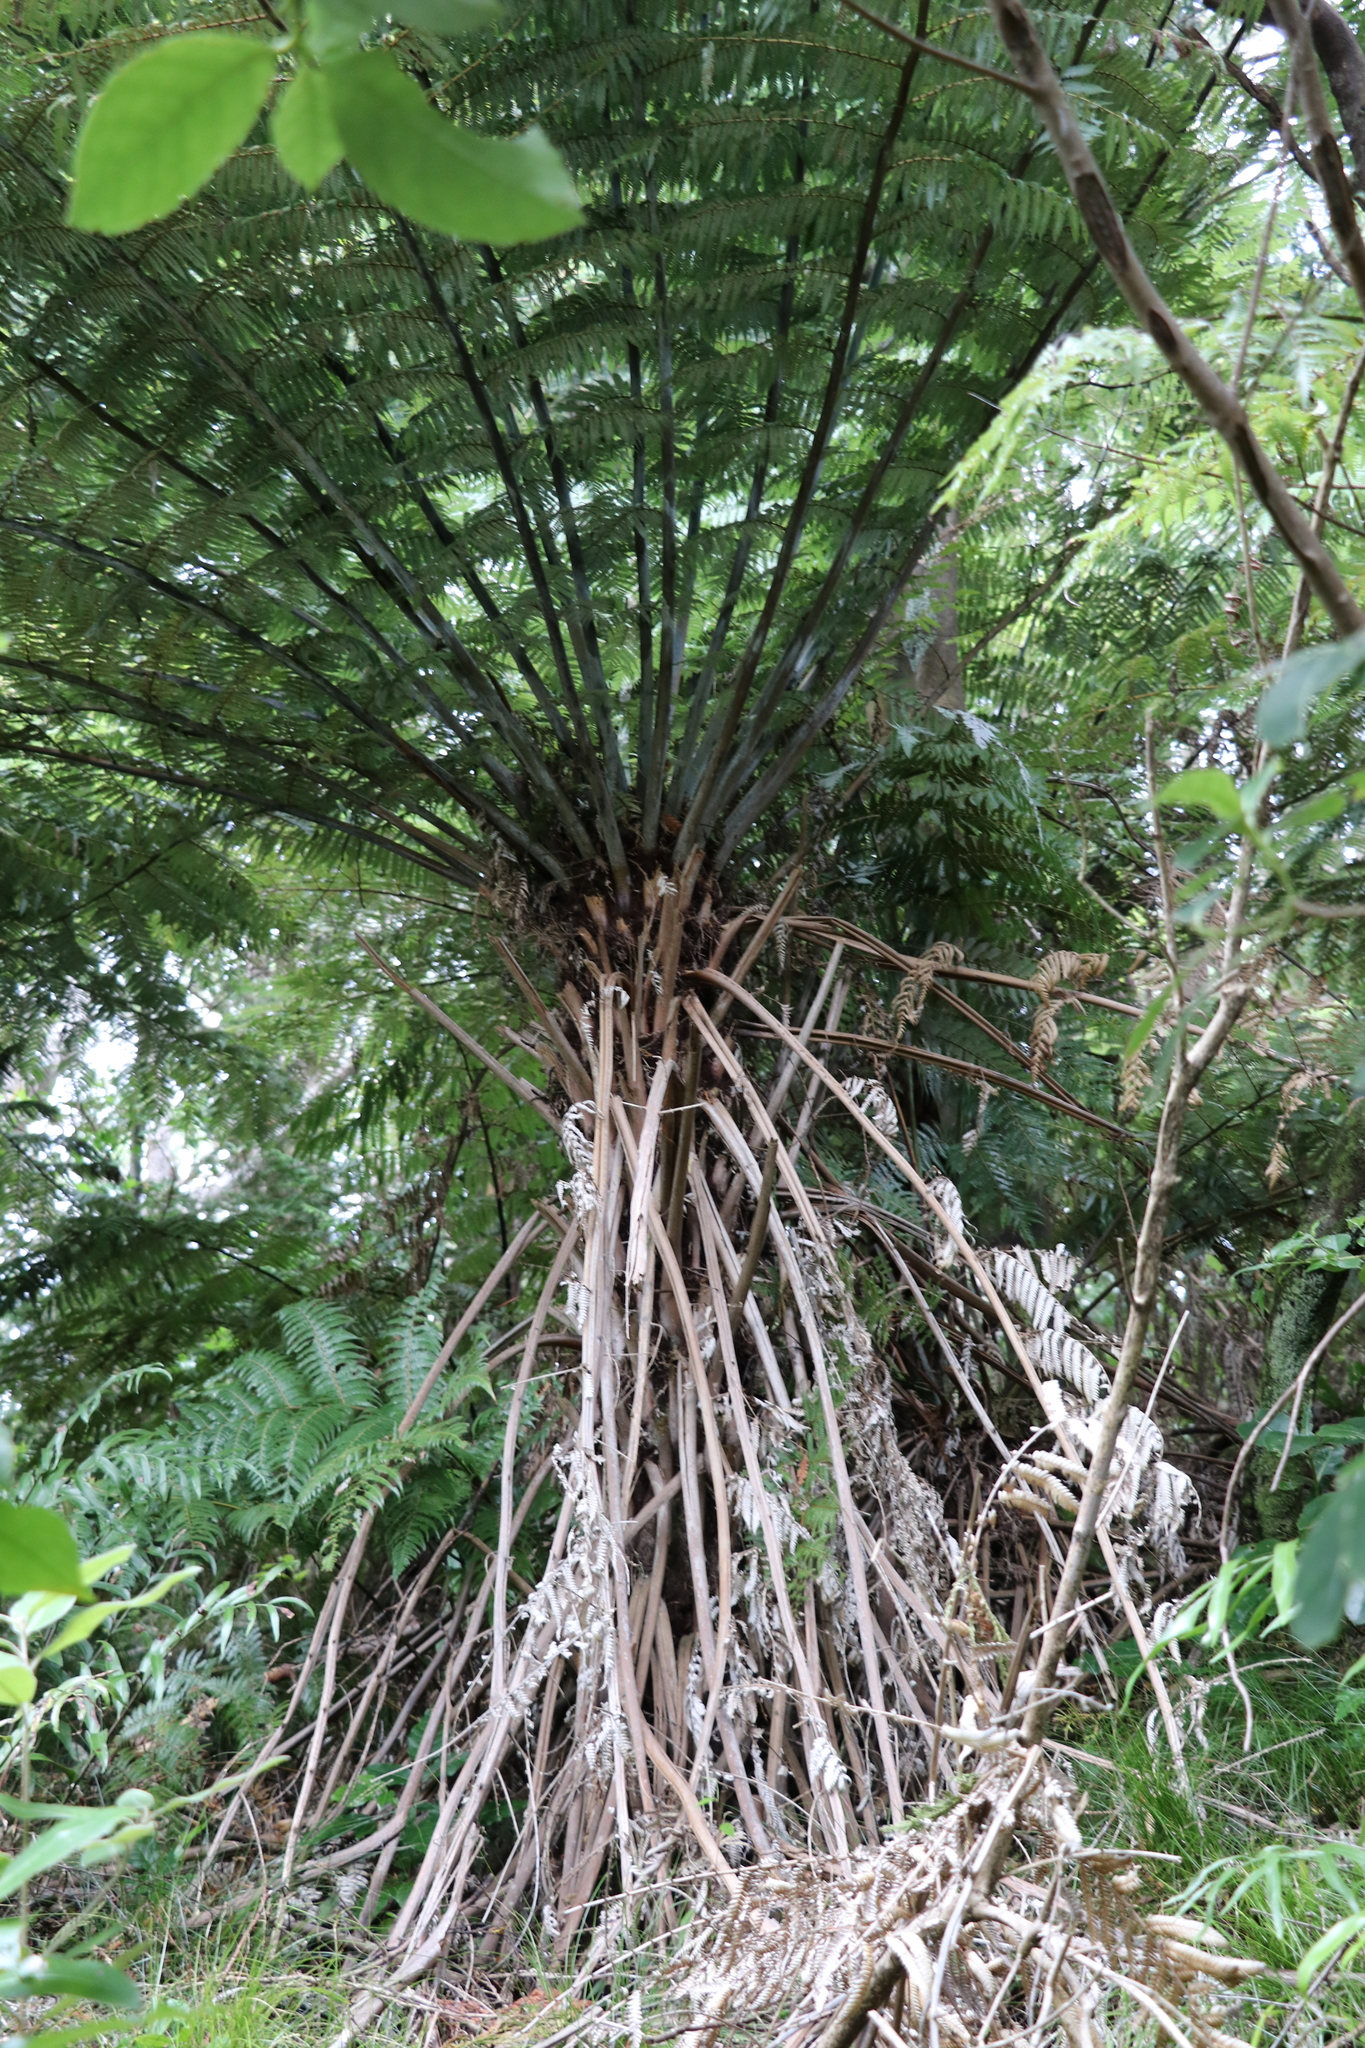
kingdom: Plantae
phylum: Tracheophyta
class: Polypodiopsida
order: Cyatheales
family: Cyatheaceae
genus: Alsophila
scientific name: Alsophila dealbata
